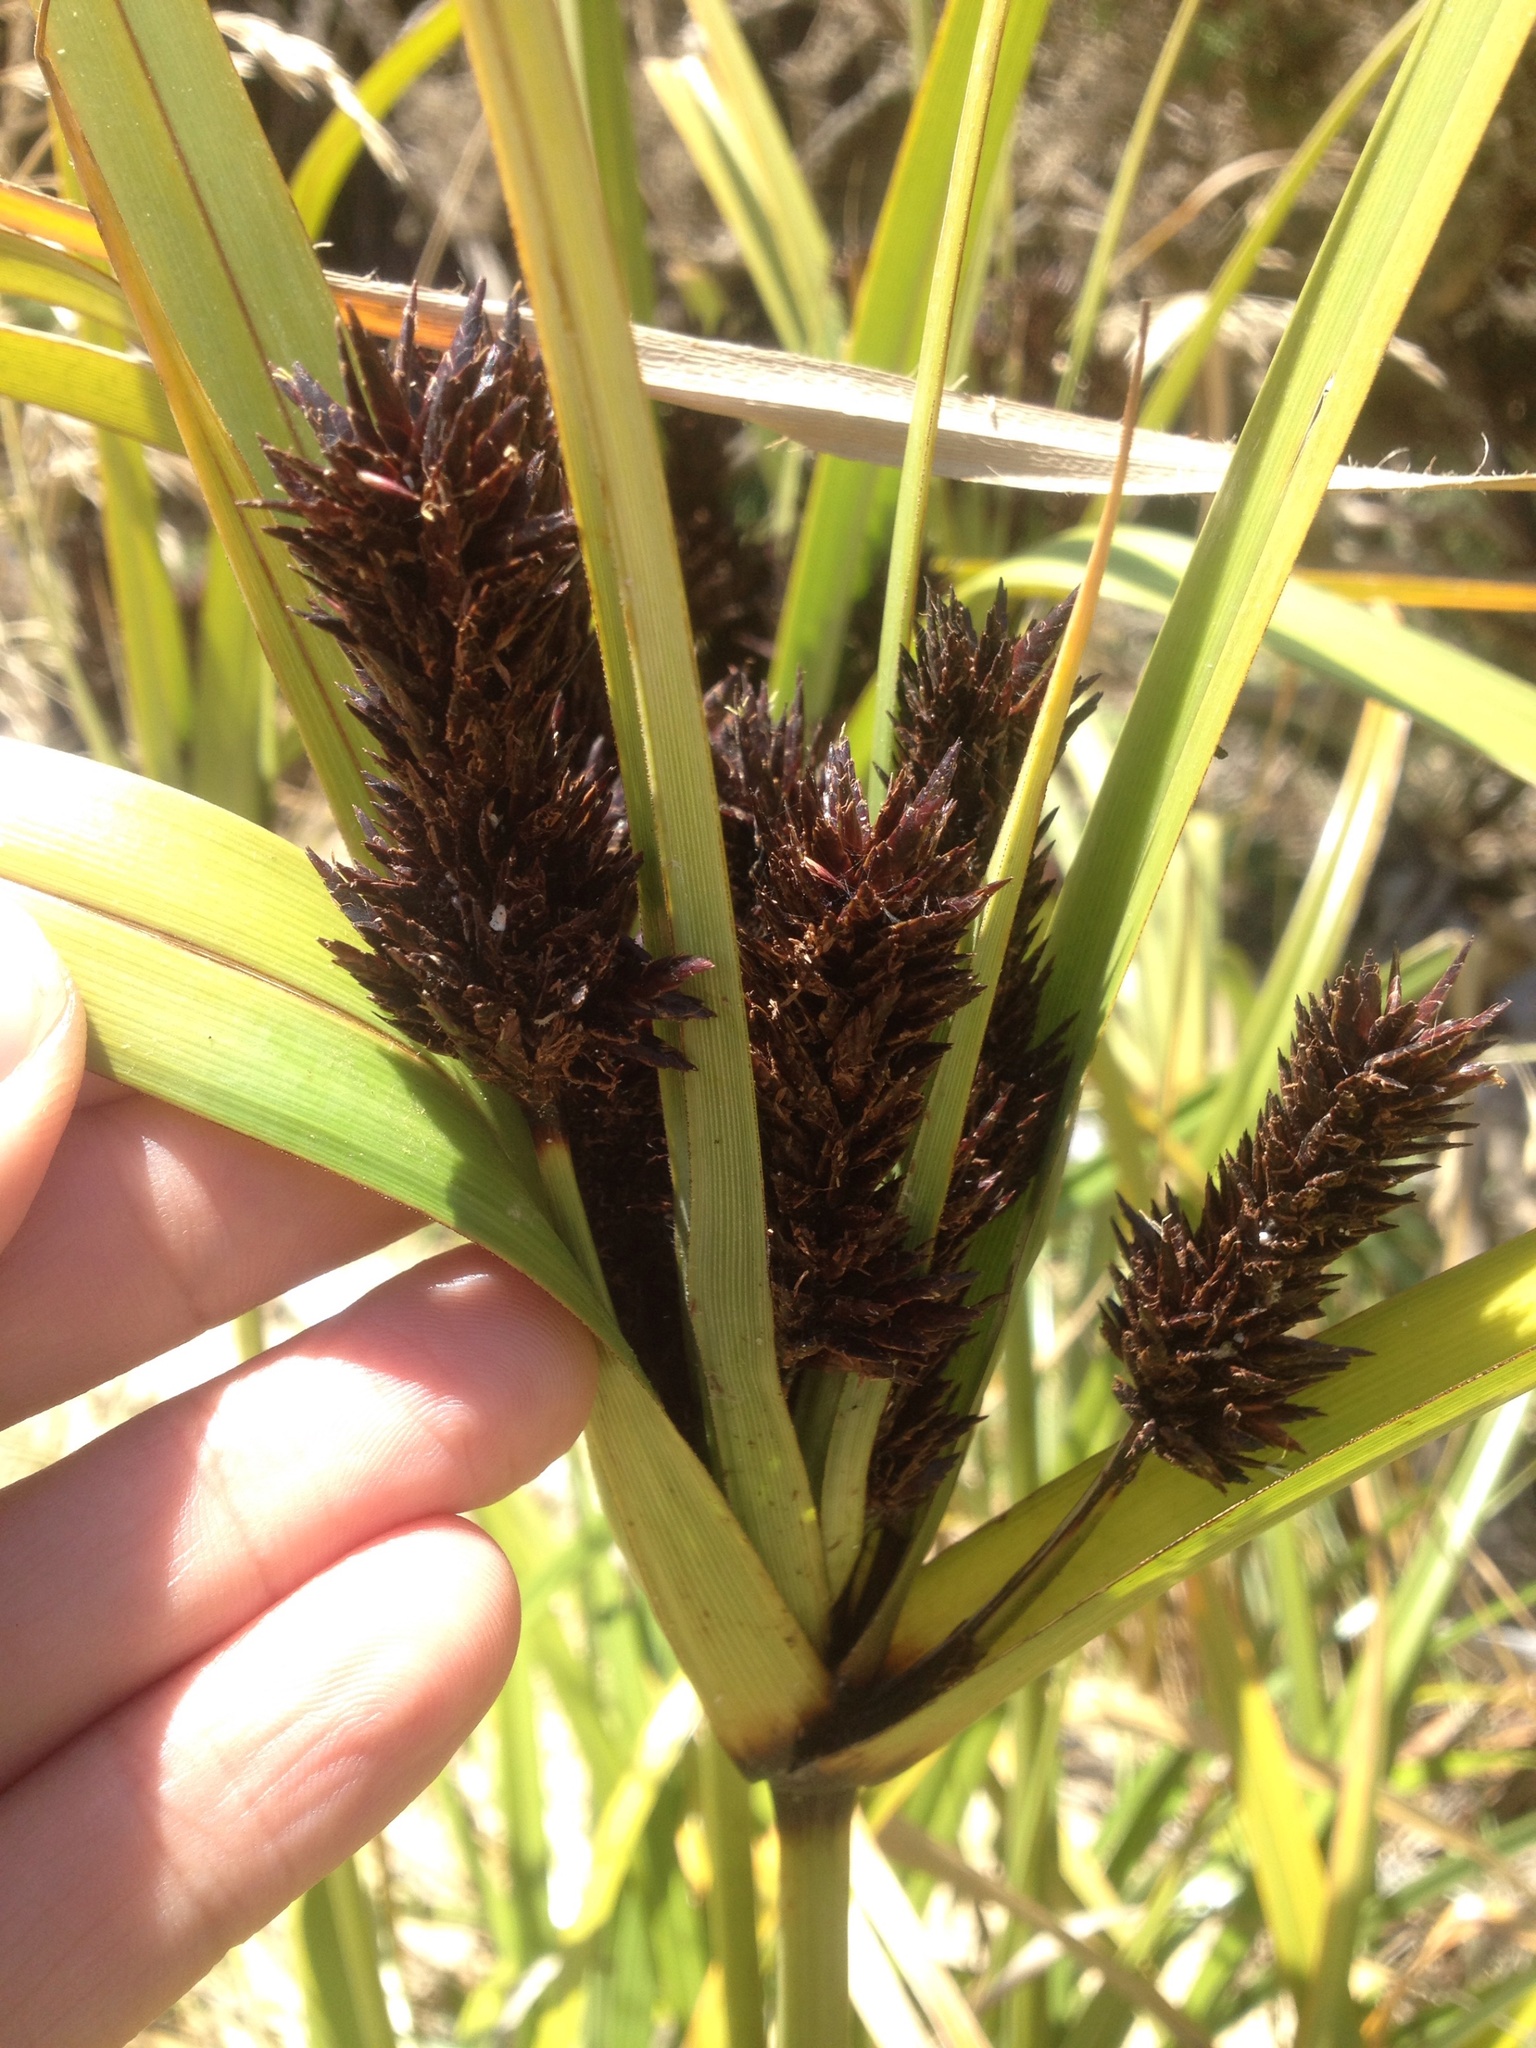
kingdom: Plantae
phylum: Tracheophyta
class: Liliopsida
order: Poales
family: Cyperaceae
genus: Cyperus
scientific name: Cyperus ustulatus
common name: Giant umbrella-sedge
